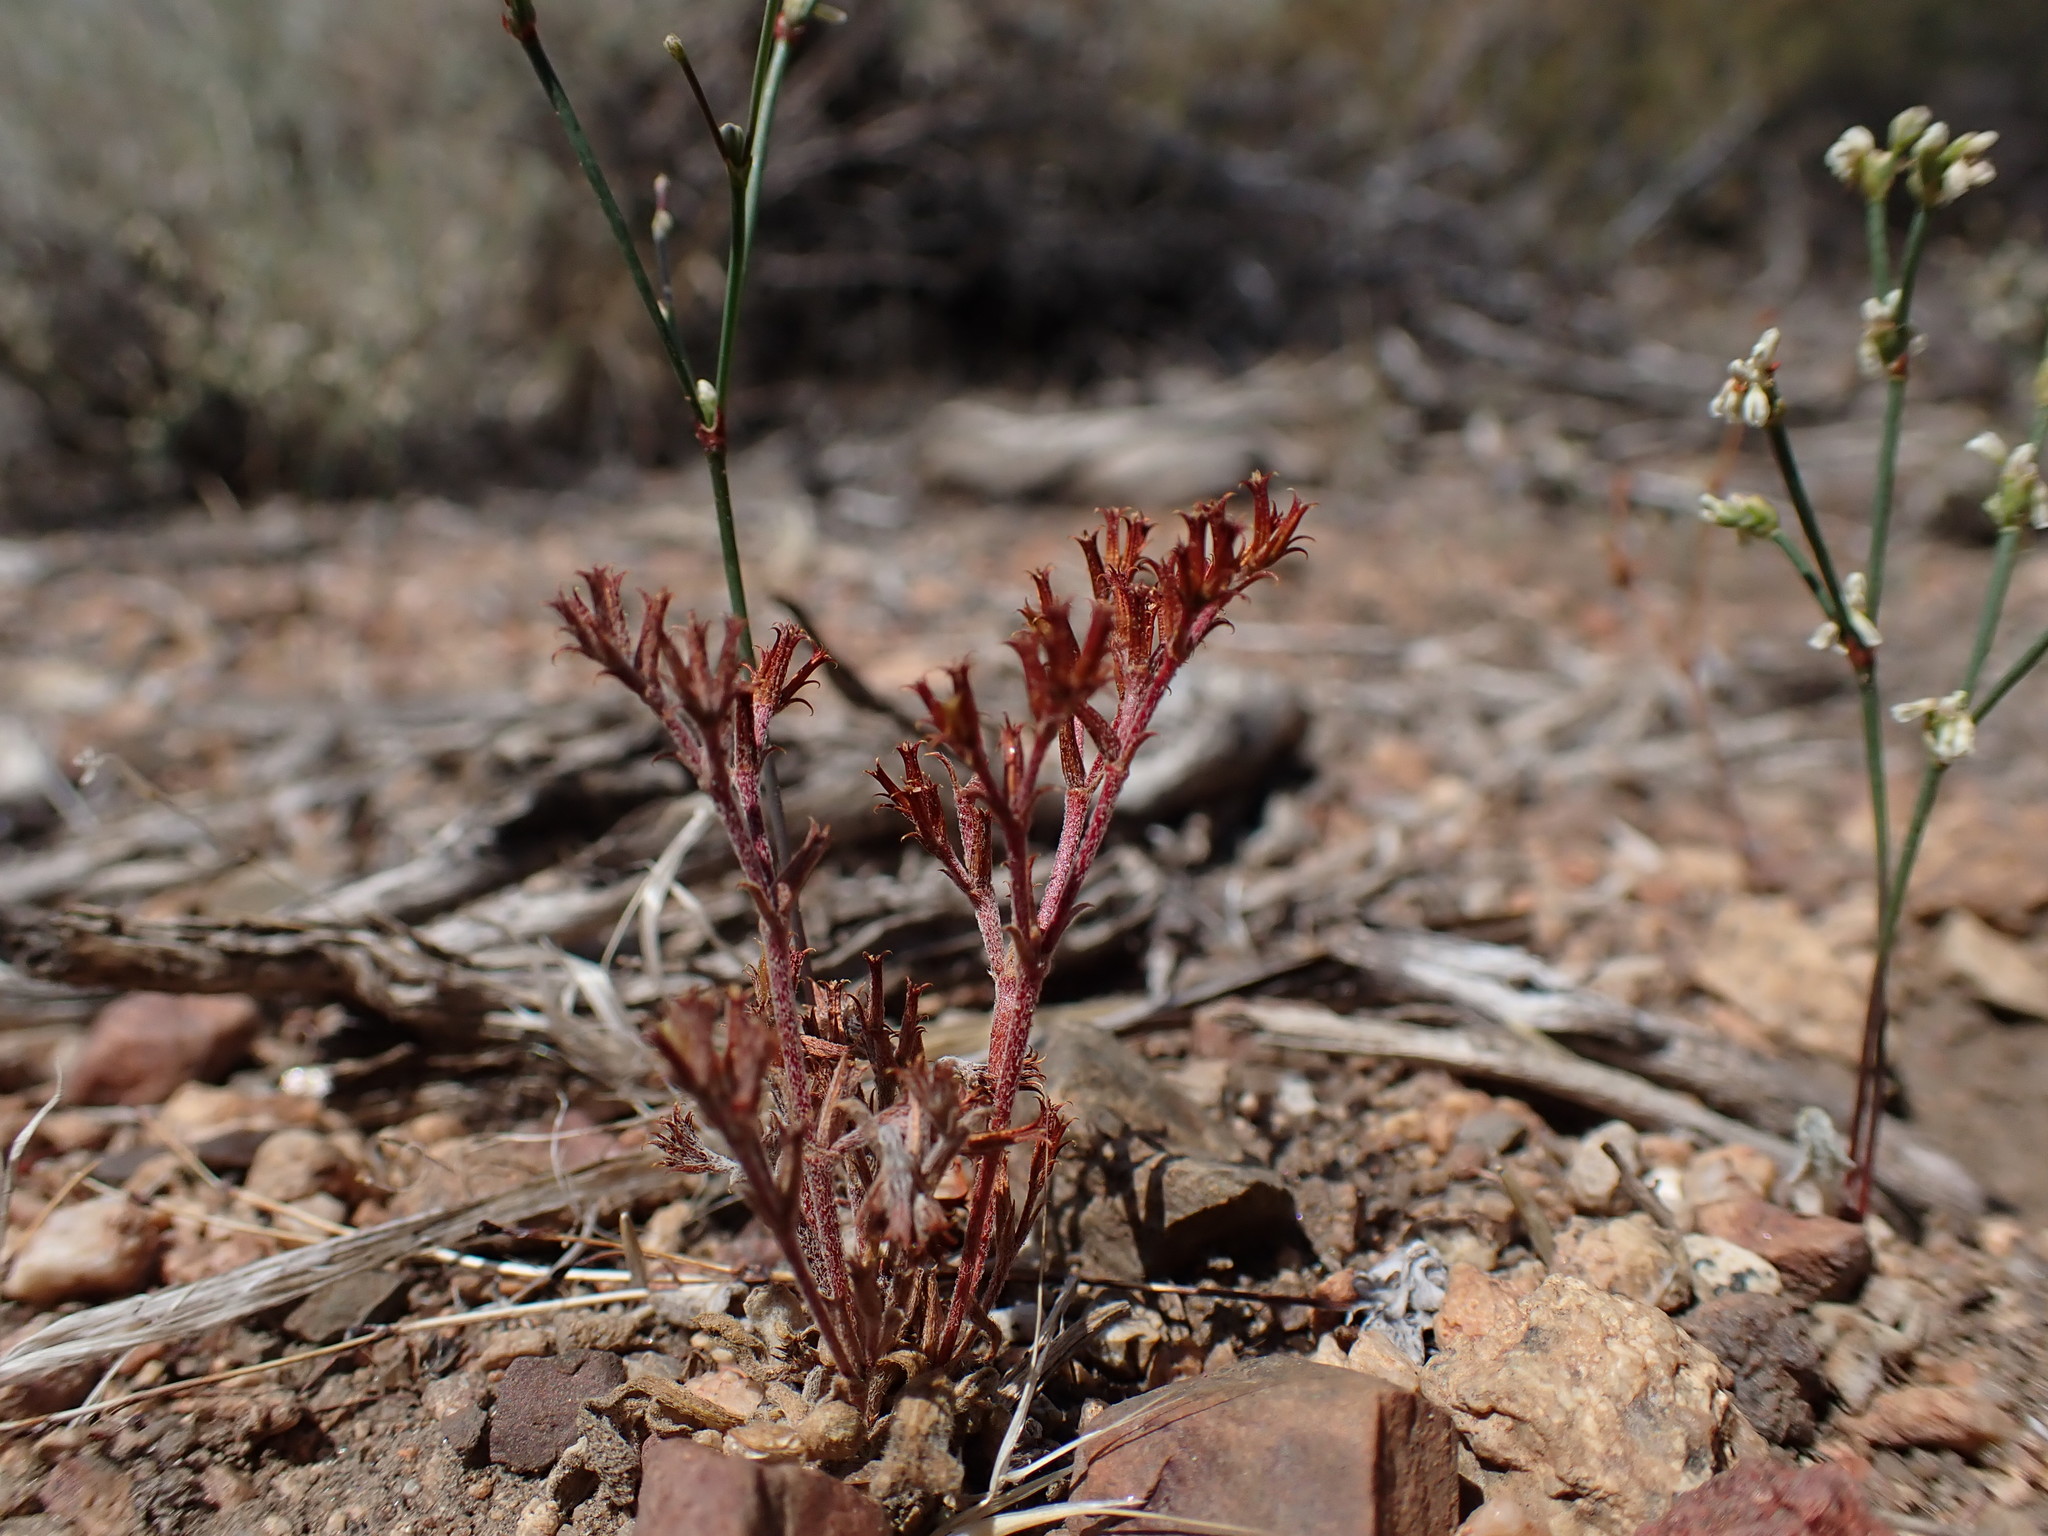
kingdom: Plantae
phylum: Tracheophyta
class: Magnoliopsida
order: Caryophyllales
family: Polygonaceae
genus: Chorizanthe
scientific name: Chorizanthe brevicornu
